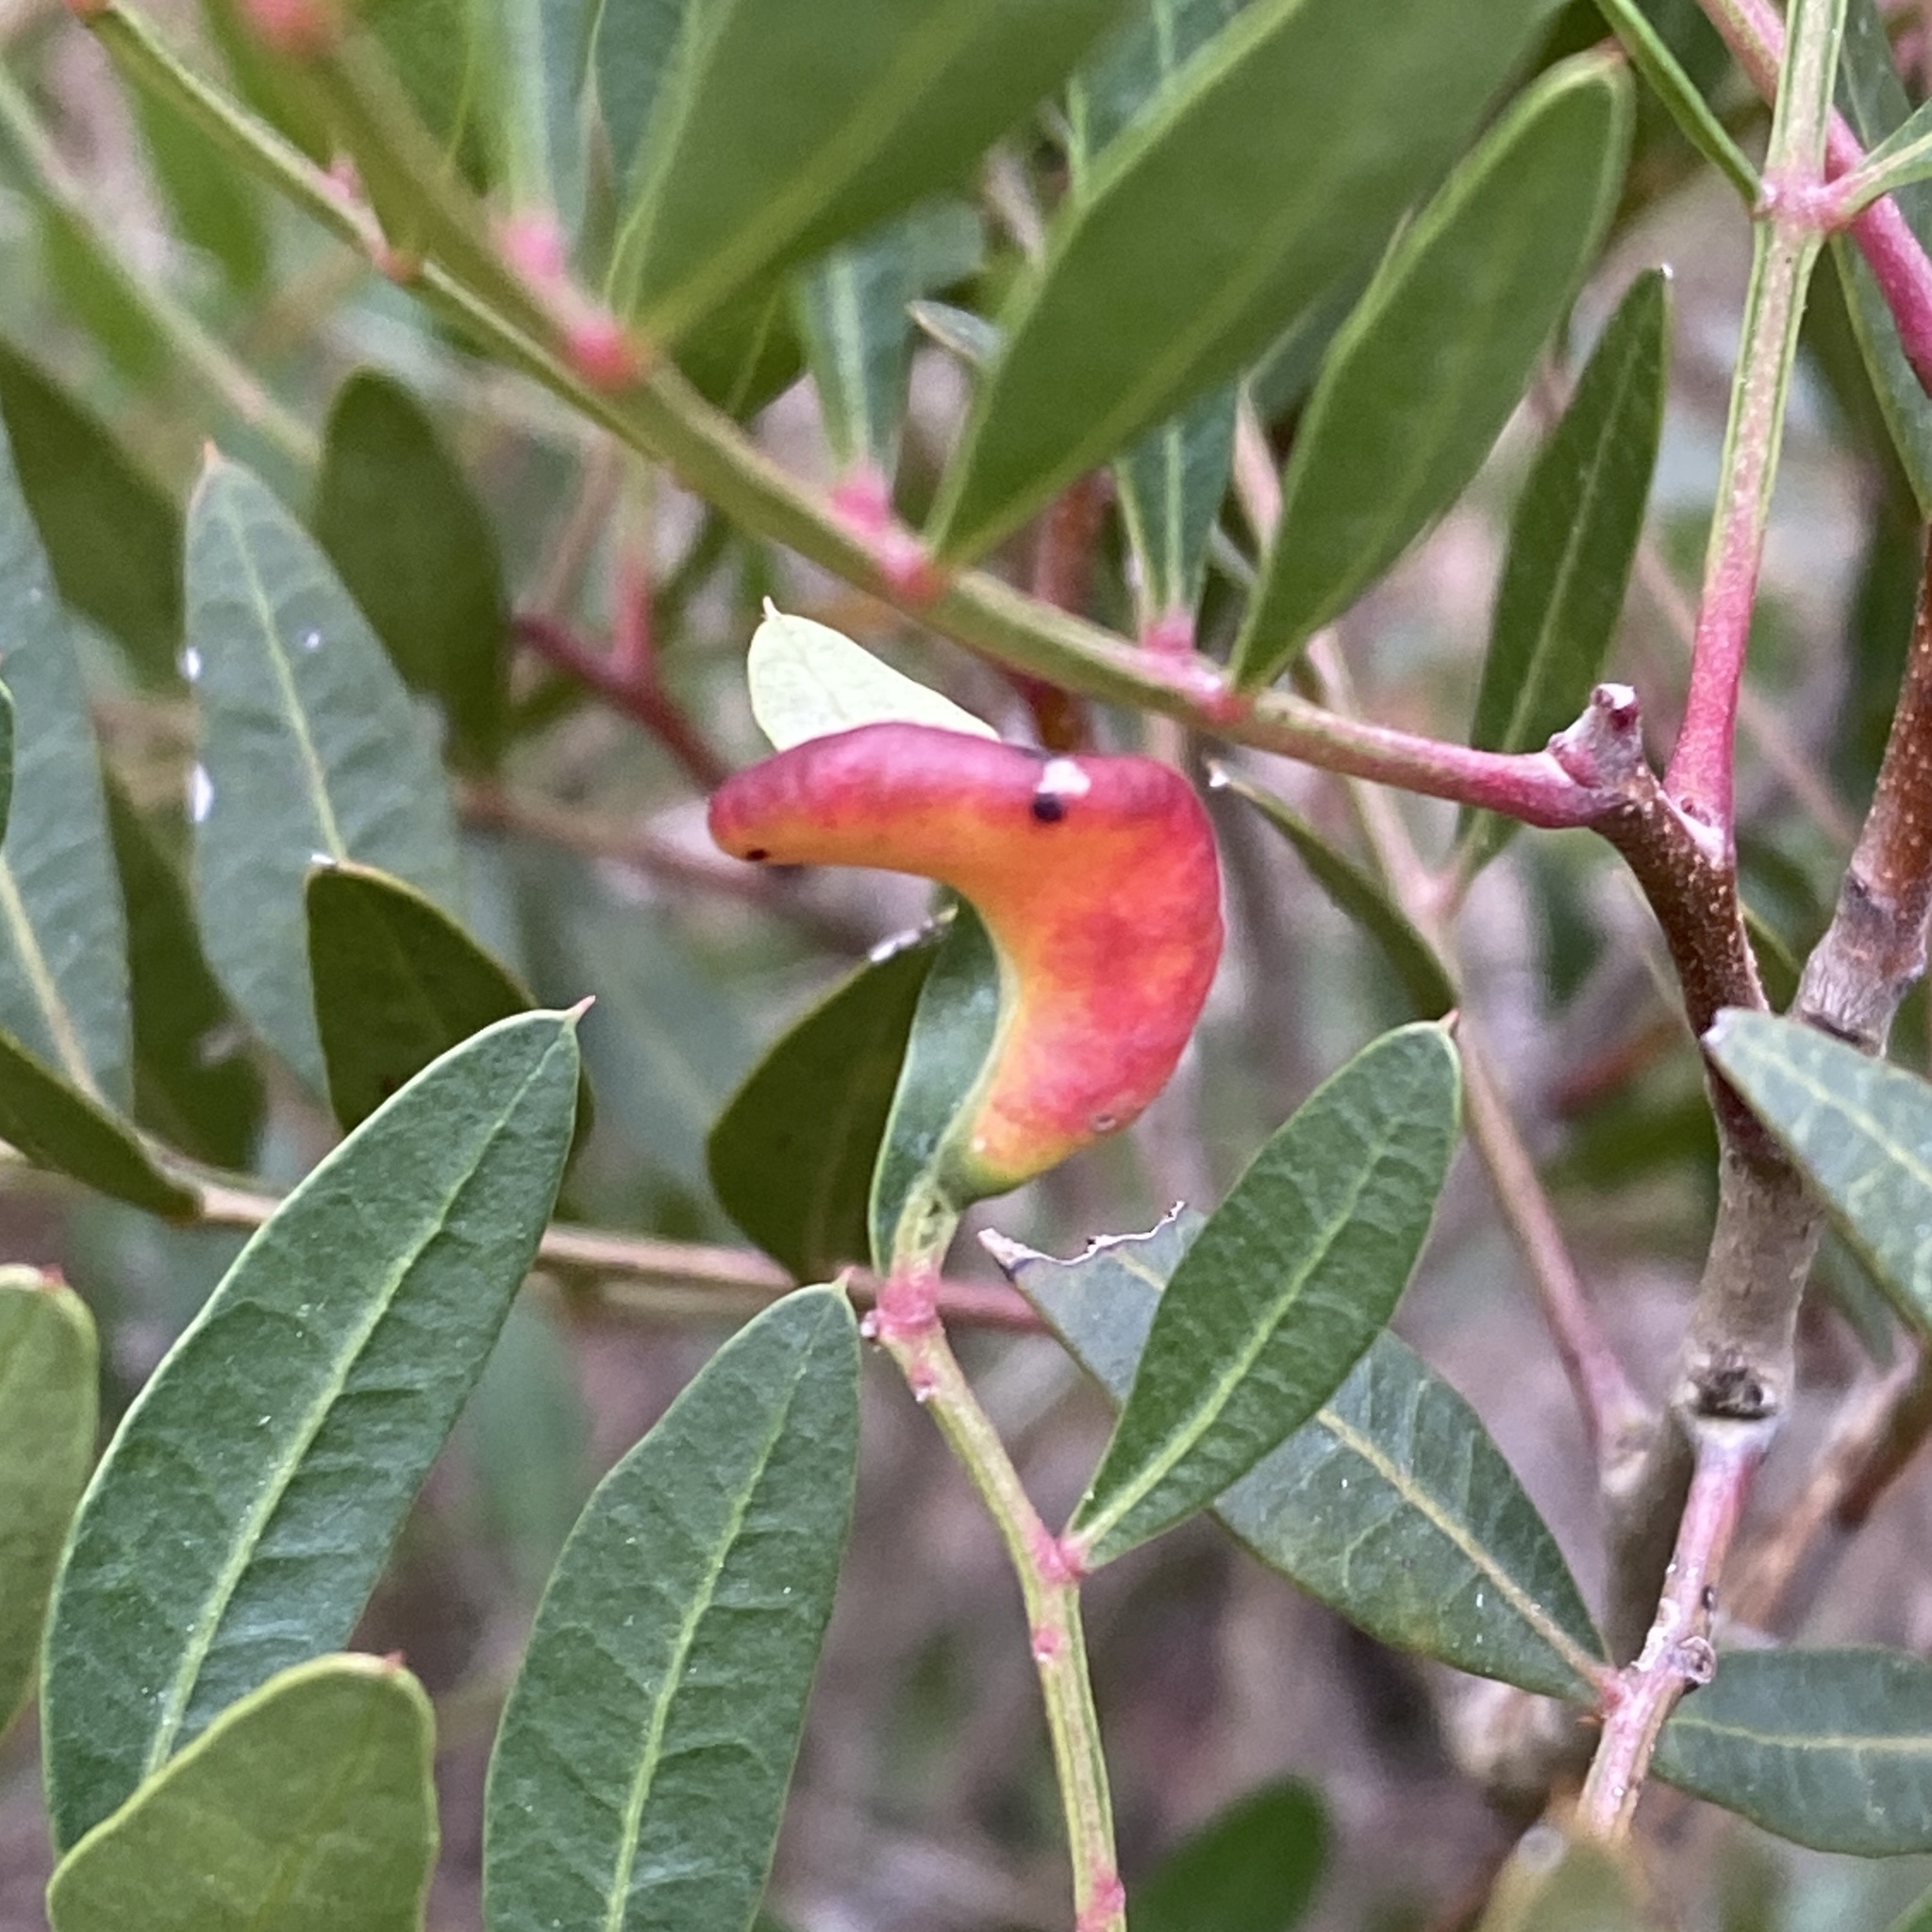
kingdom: Animalia
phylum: Arthropoda
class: Insecta
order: Hemiptera
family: Aphididae
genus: Aploneura
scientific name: Aploneura lentisci
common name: Mealy grass root aphid
